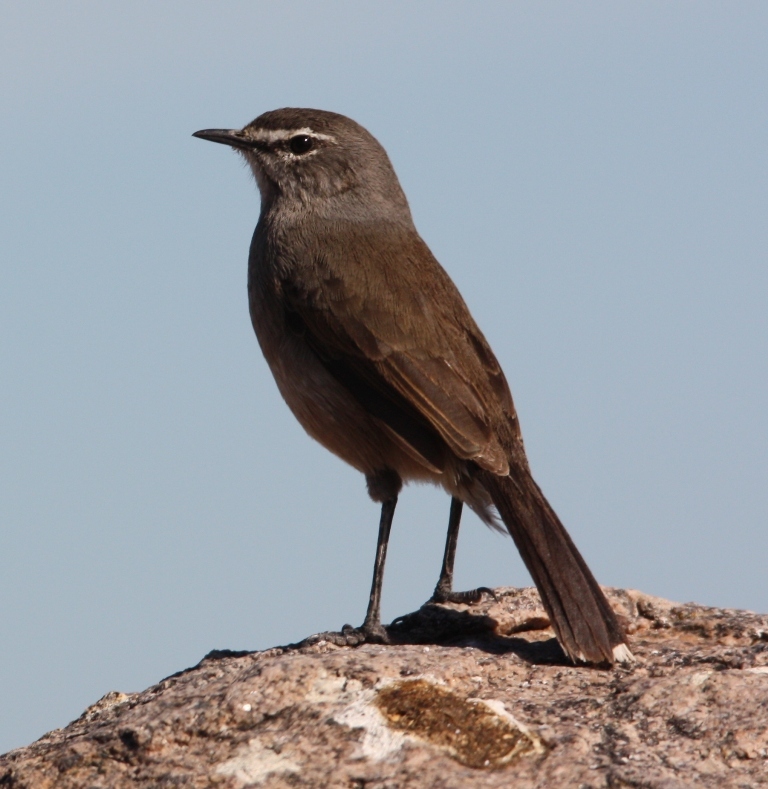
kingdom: Animalia
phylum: Chordata
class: Aves
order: Passeriformes
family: Muscicapidae
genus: Erythropygia
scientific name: Erythropygia coryphoeus
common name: Karoo scrub robin
